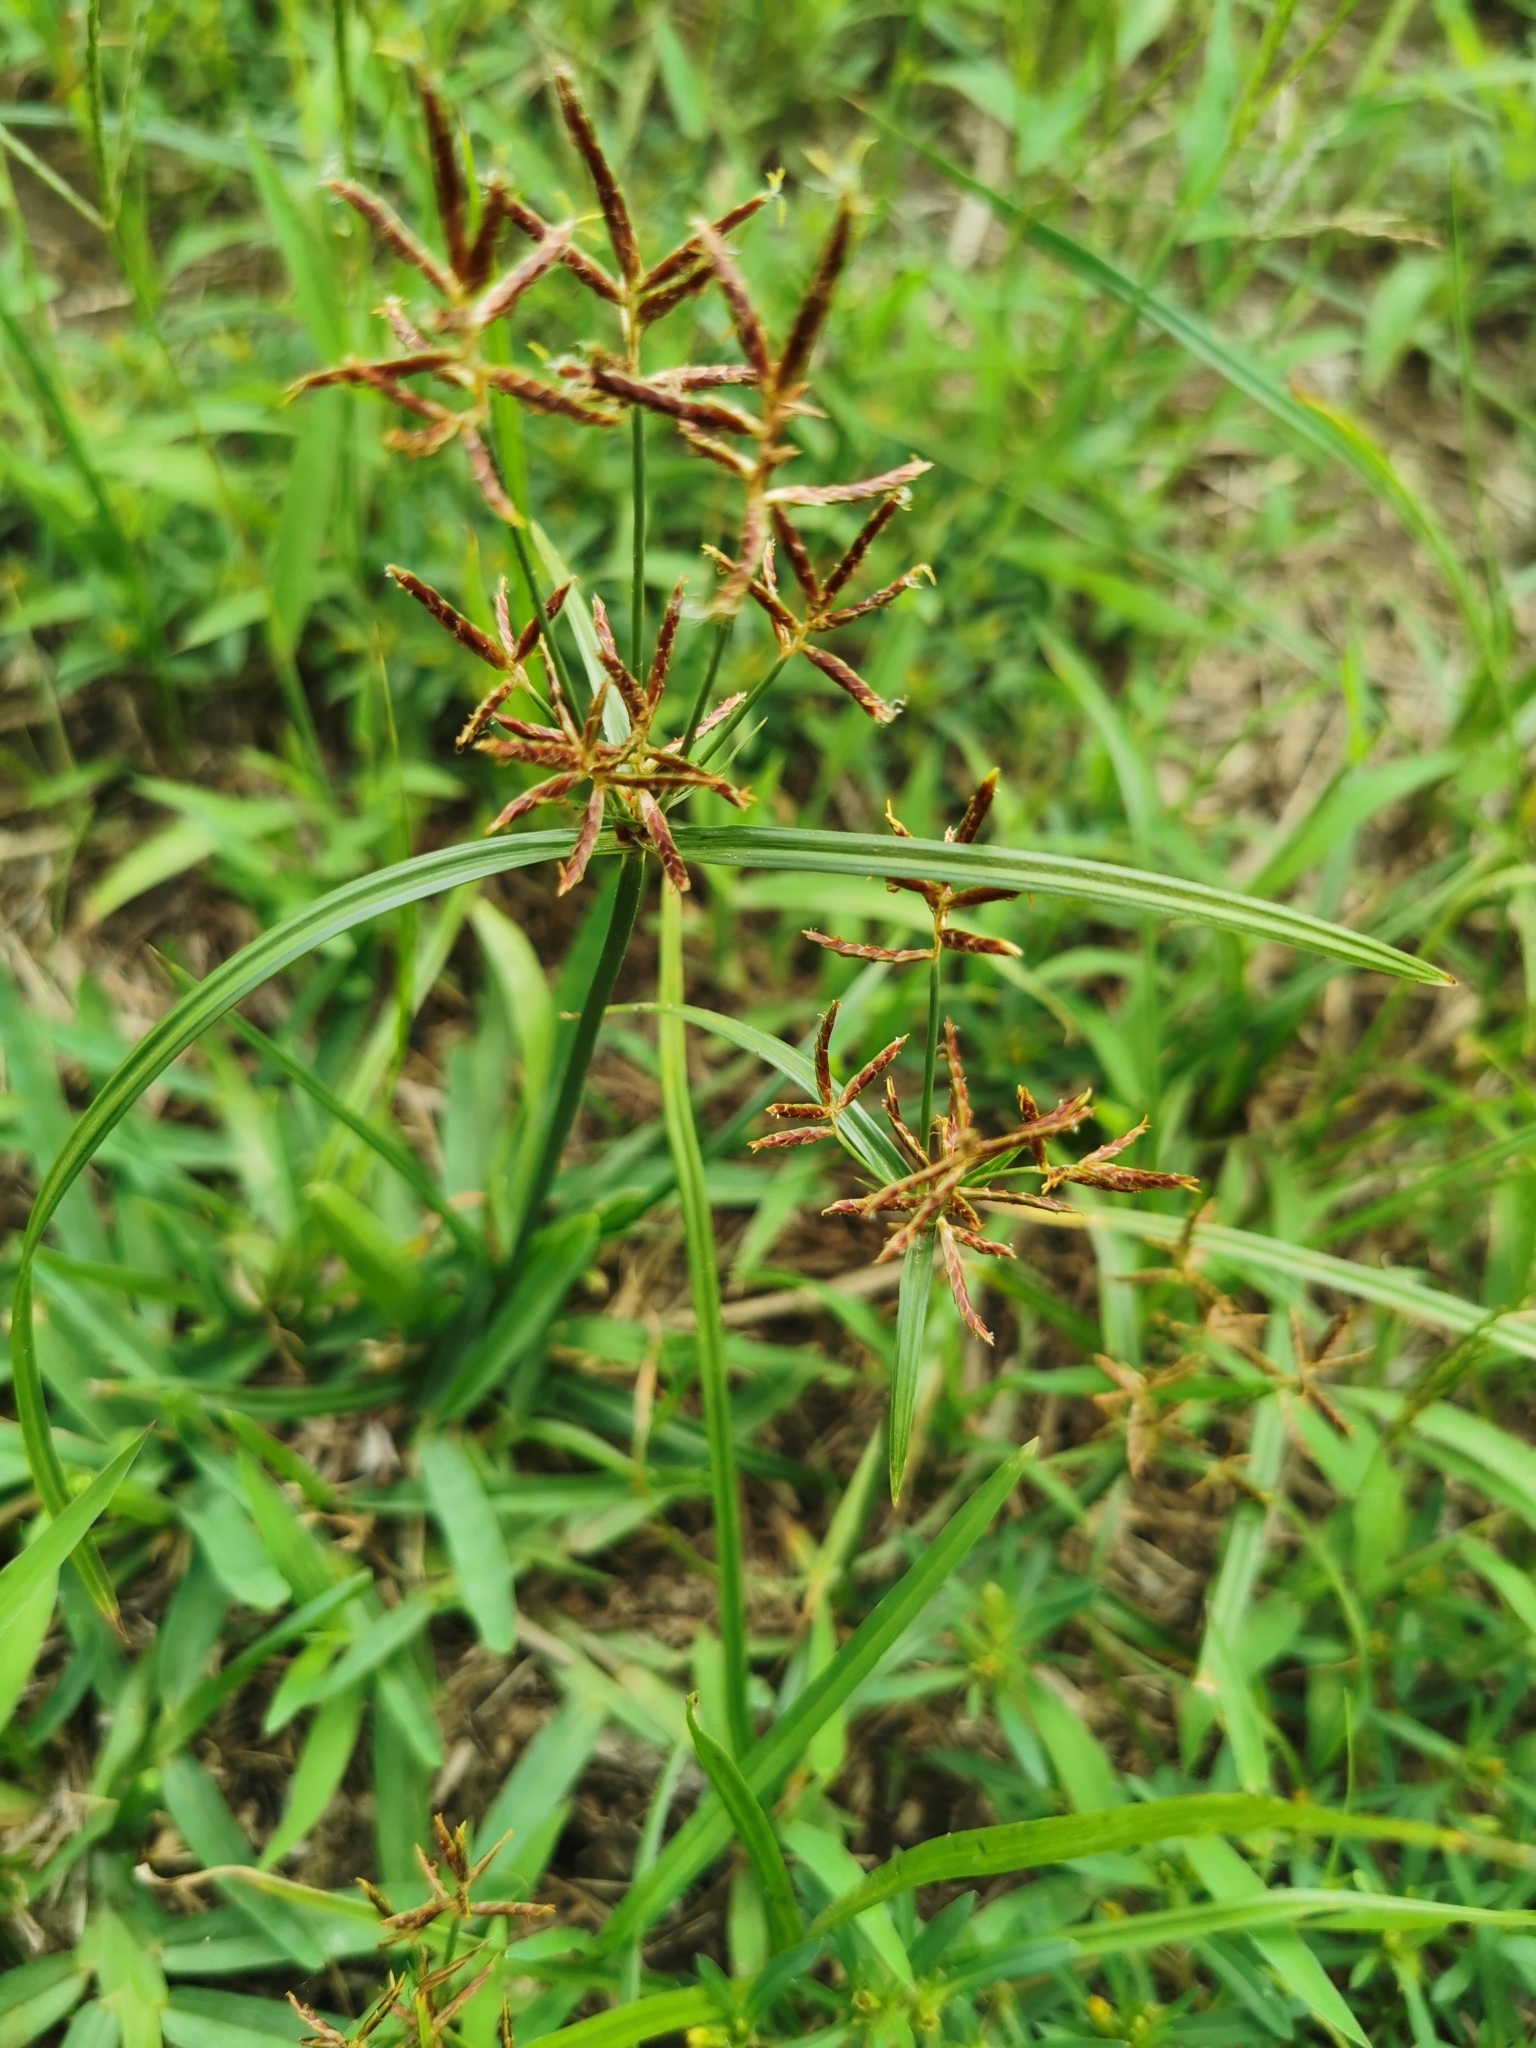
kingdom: Plantae
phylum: Tracheophyta
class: Liliopsida
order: Poales
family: Cyperaceae
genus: Cyperus
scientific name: Cyperus rotundus
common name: Nutgrass
